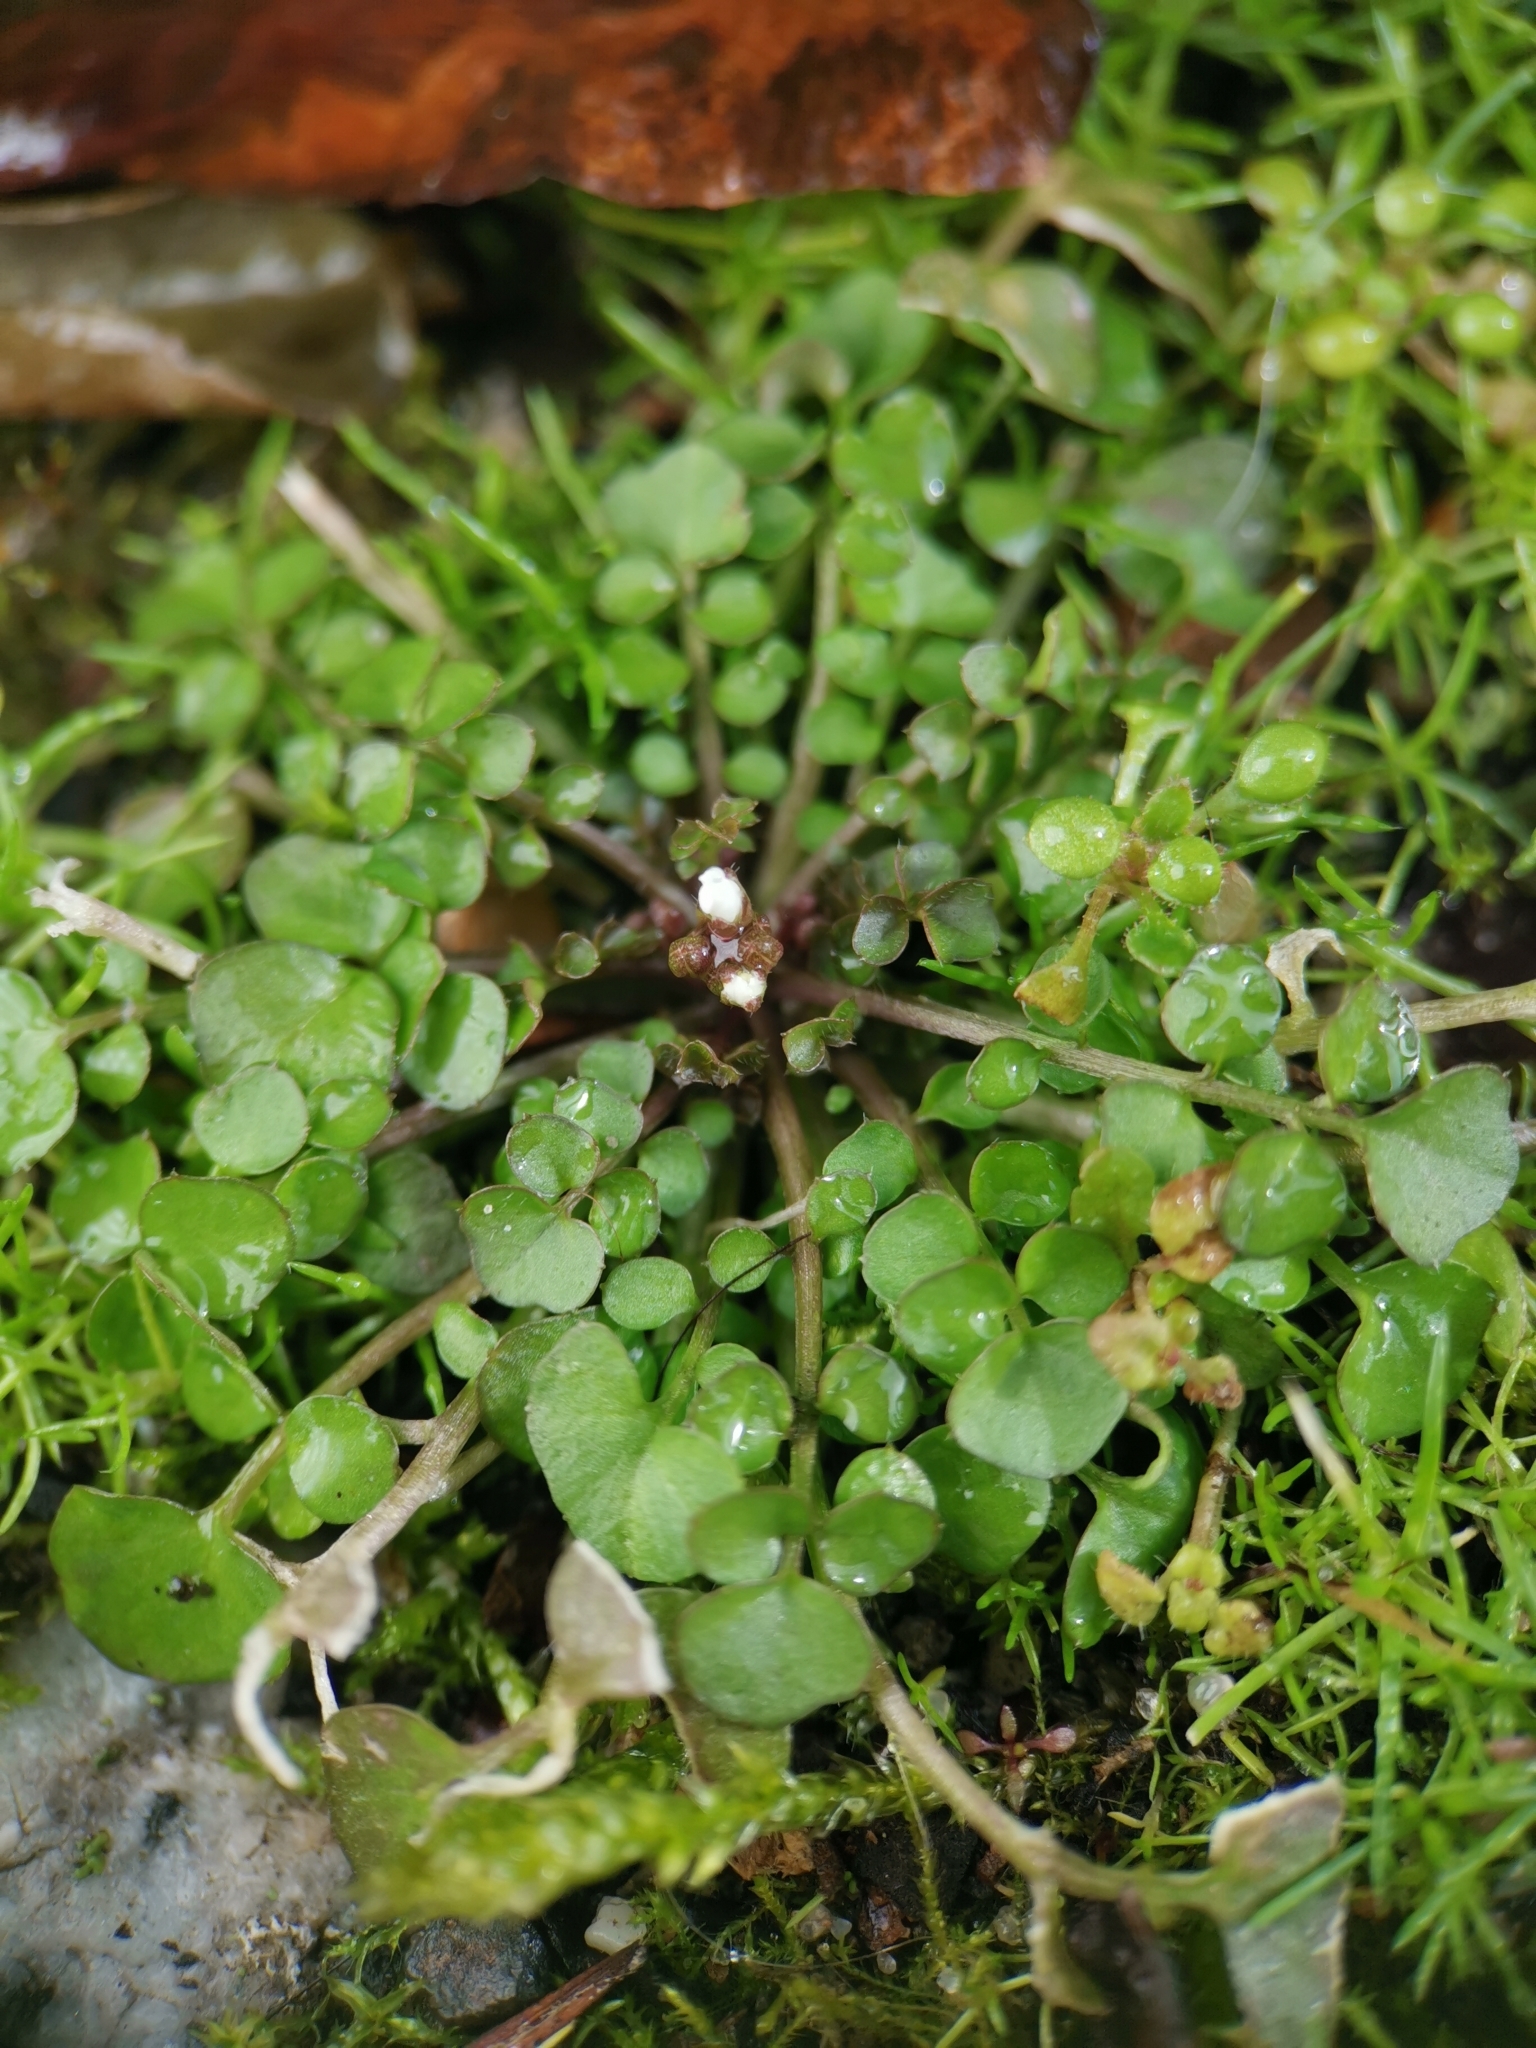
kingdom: Plantae
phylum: Tracheophyta
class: Magnoliopsida
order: Brassicales
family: Brassicaceae
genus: Cardamine
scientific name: Cardamine hirsuta
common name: Hairy bittercress
